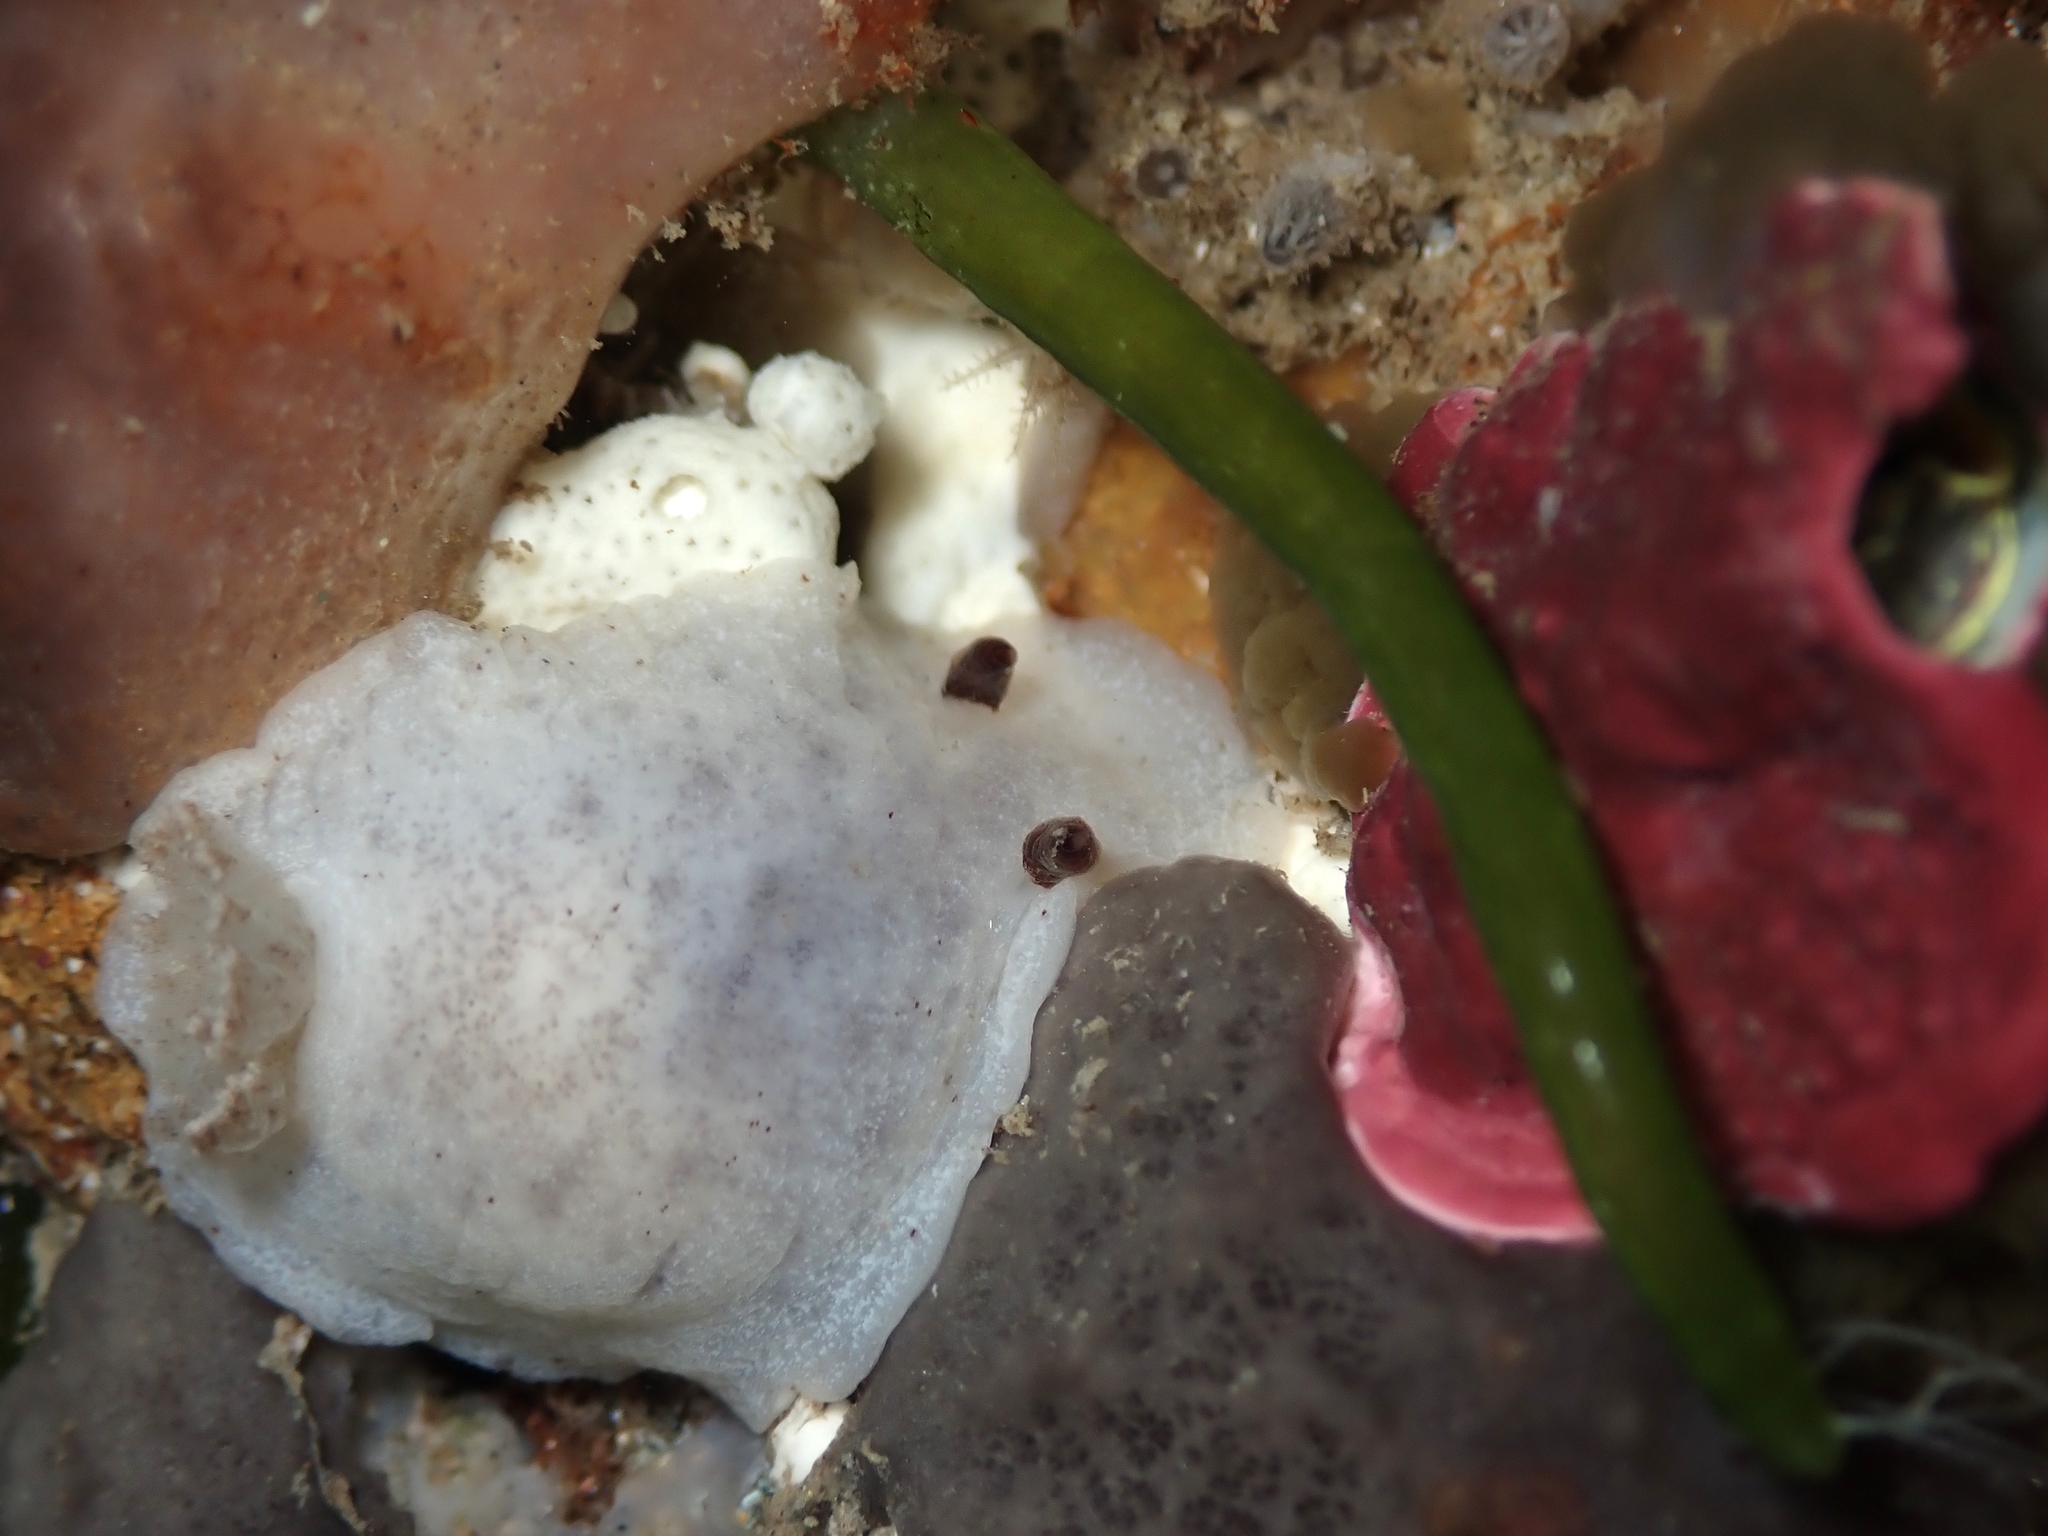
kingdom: Animalia
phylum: Mollusca
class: Gastropoda
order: Nudibranchia
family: Discodorididae
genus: Paradoris
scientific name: Paradoris dubia
